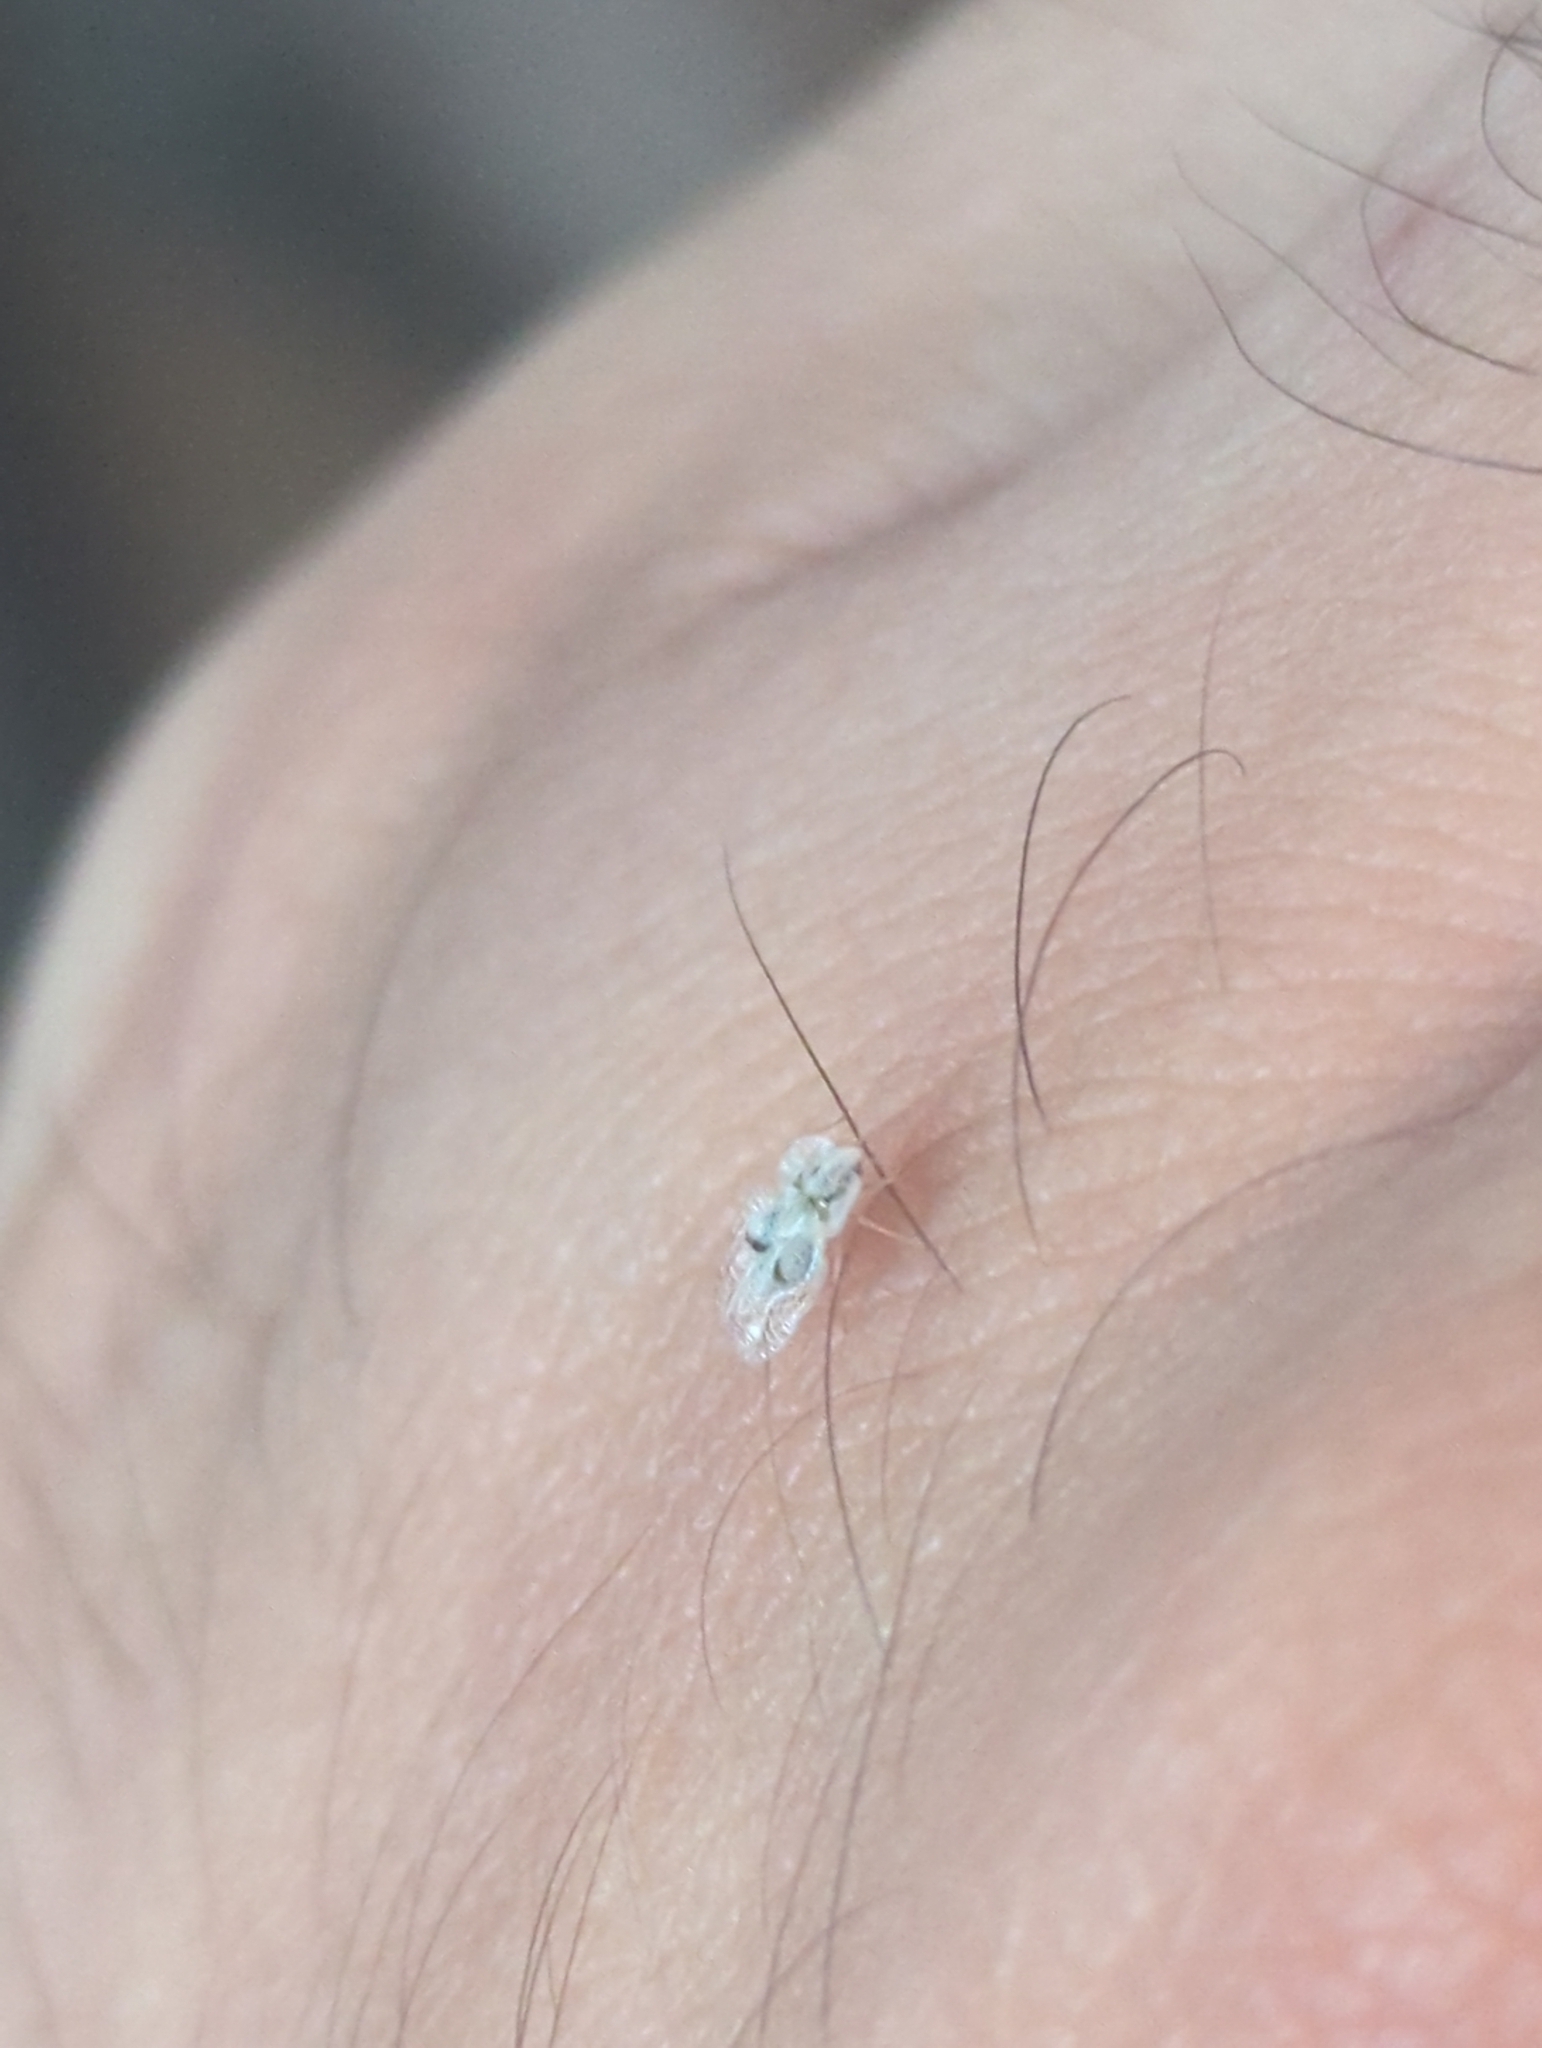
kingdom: Animalia
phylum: Arthropoda
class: Insecta
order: Hemiptera
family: Tingidae
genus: Corythucha
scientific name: Corythucha ciliata
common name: Sycamore lace bug
